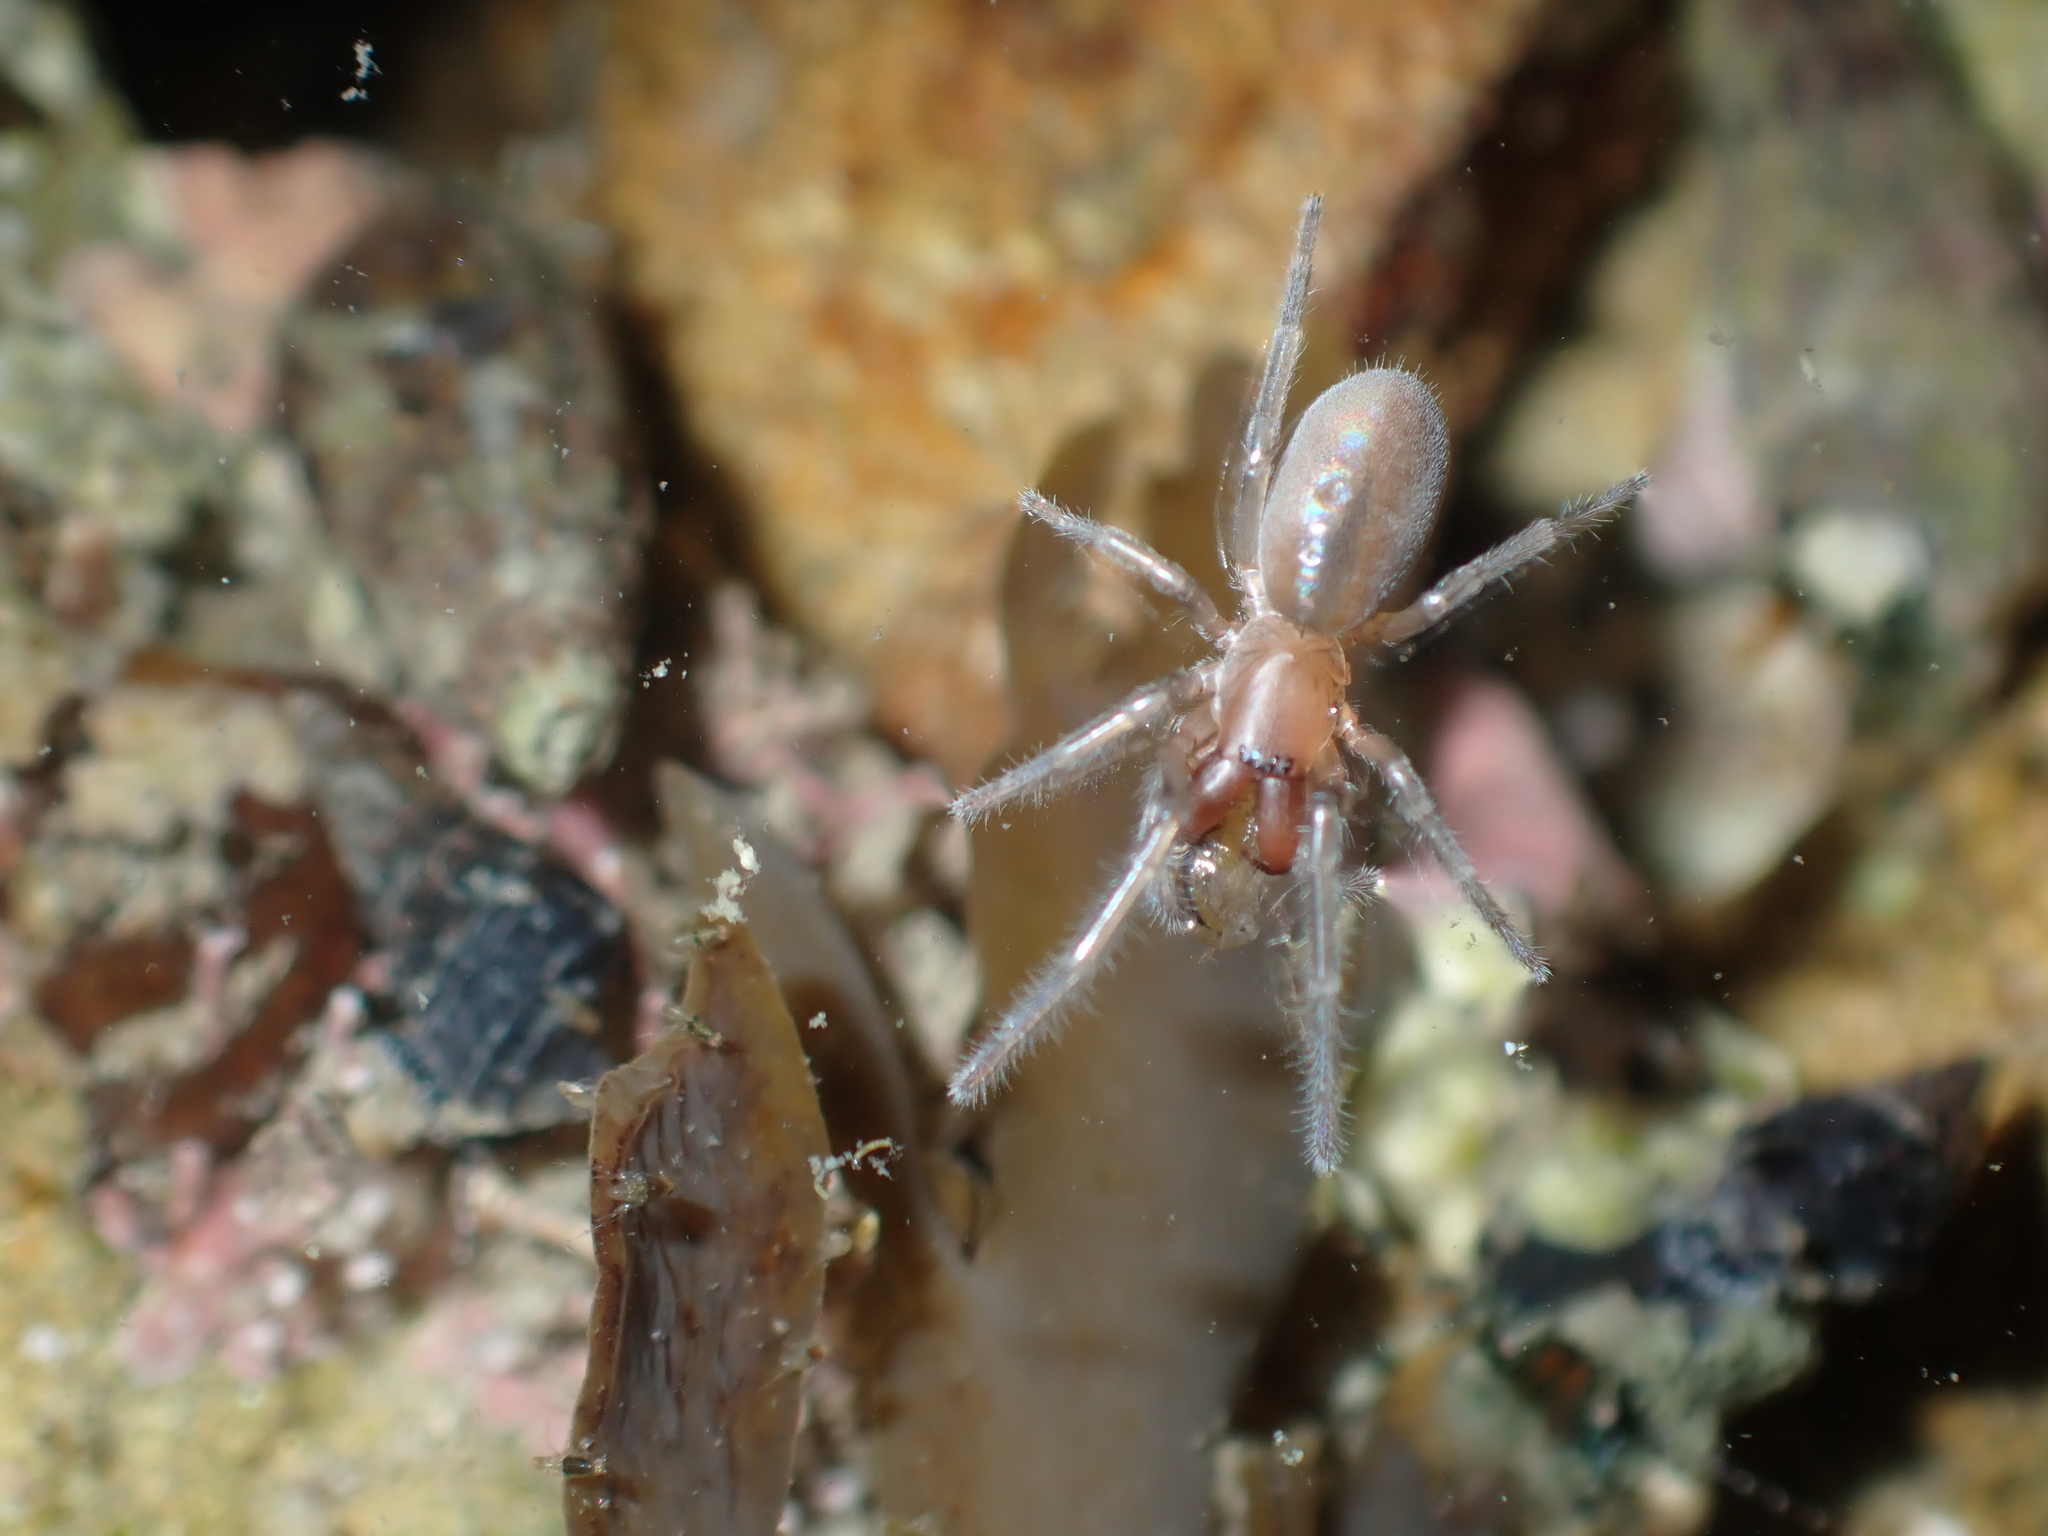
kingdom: Animalia
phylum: Arthropoda
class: Arachnida
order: Araneae
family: Desidae
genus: Desis
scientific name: Desis marina
